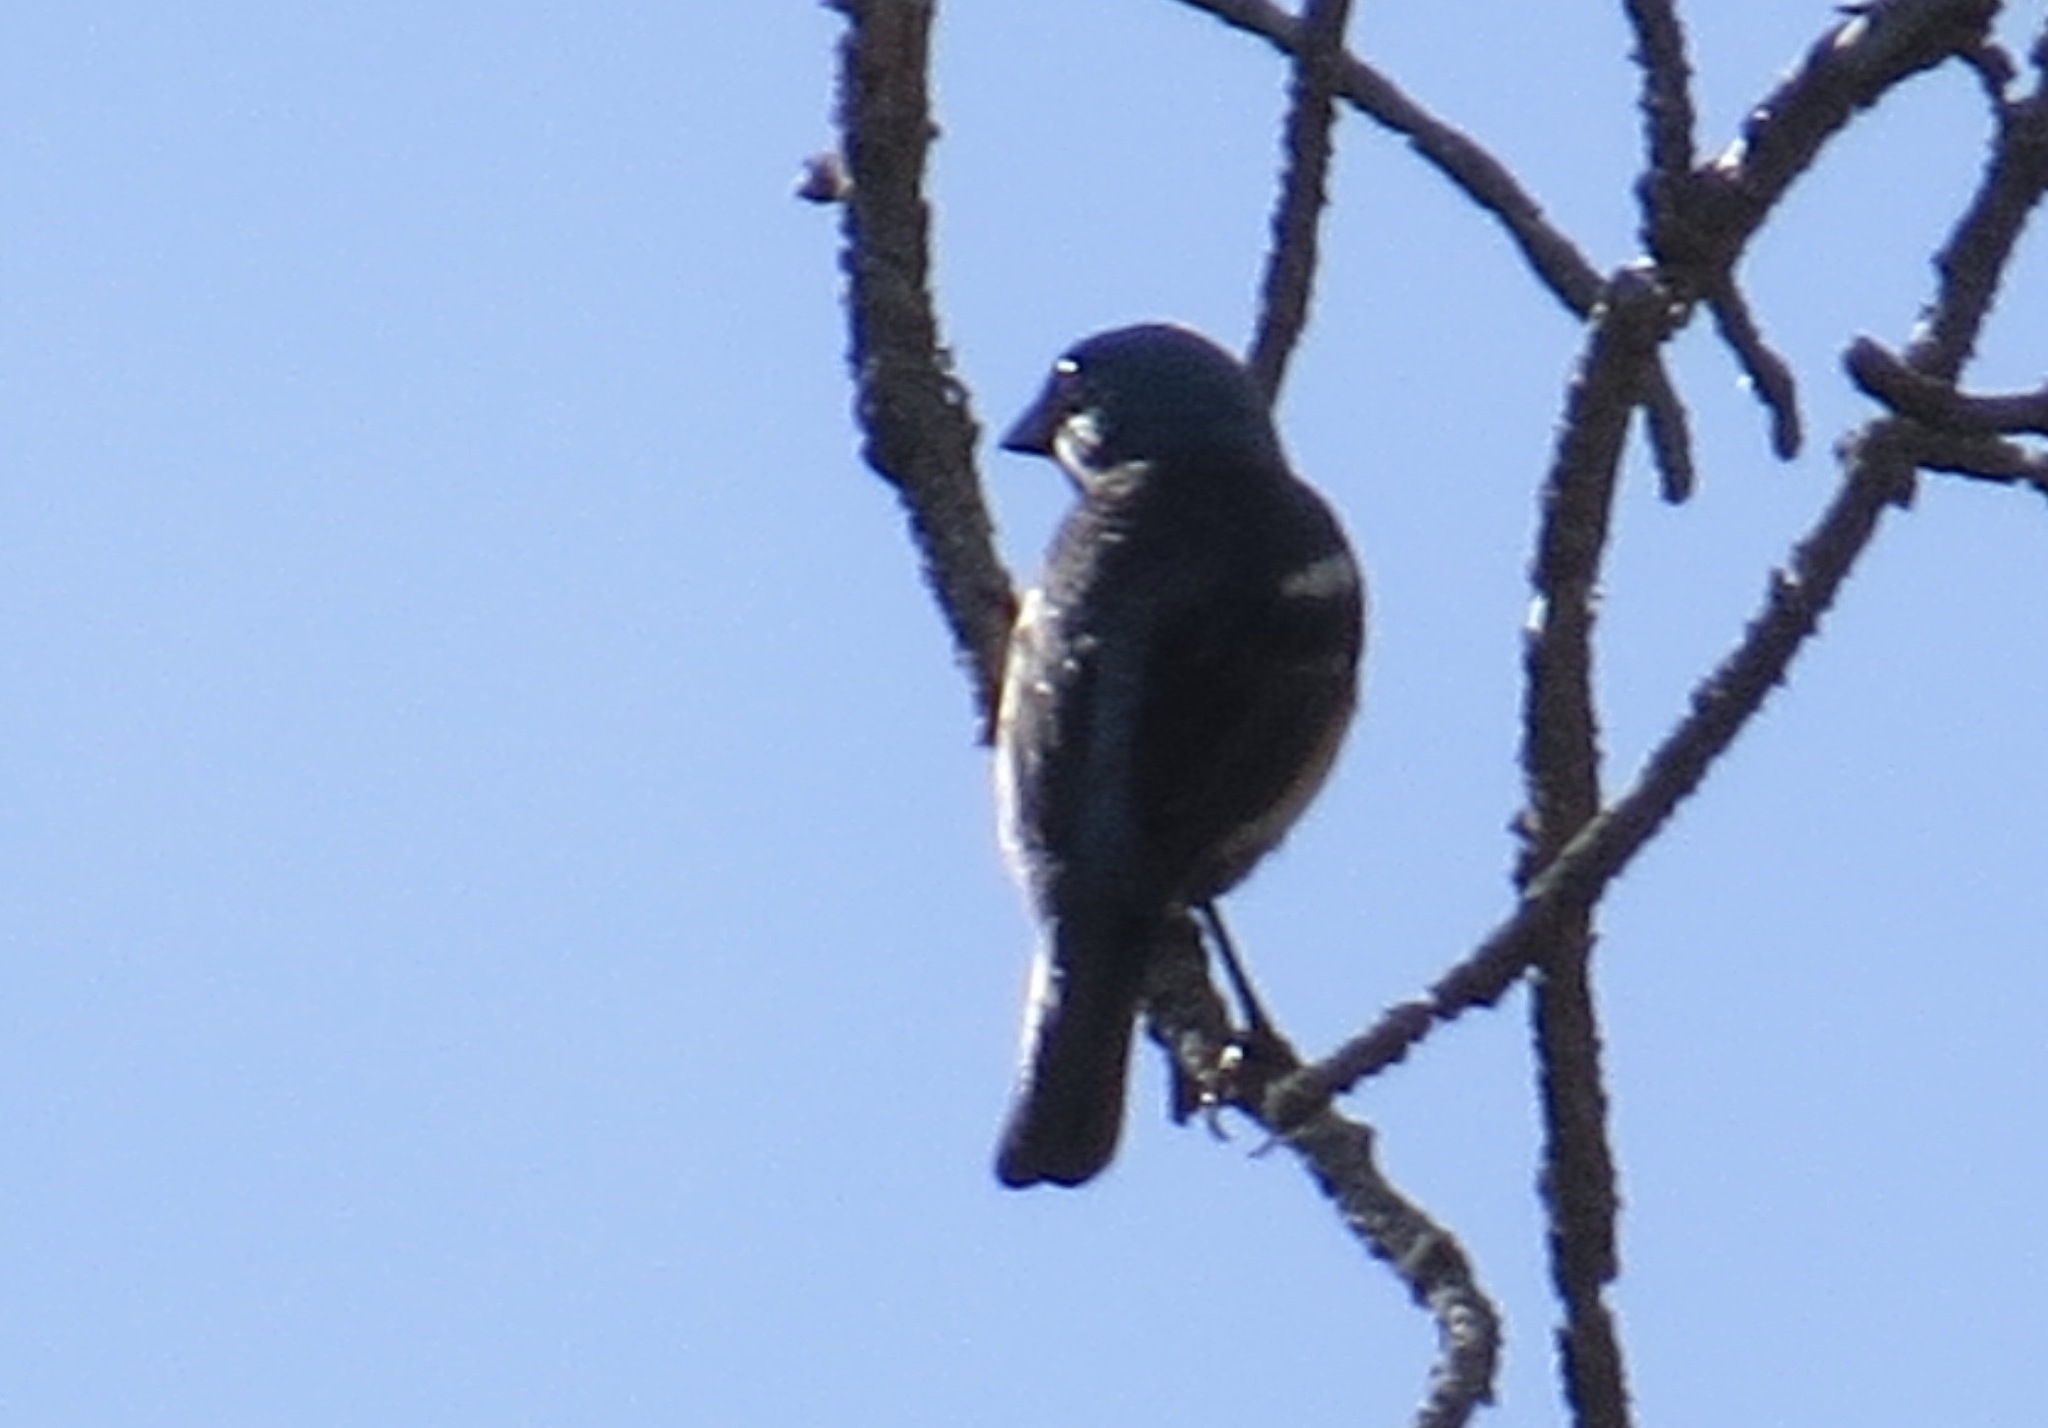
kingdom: Animalia
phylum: Chordata
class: Aves
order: Passeriformes
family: Cardinalidae
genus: Passerina
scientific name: Passerina amoena
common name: Lazuli bunting
